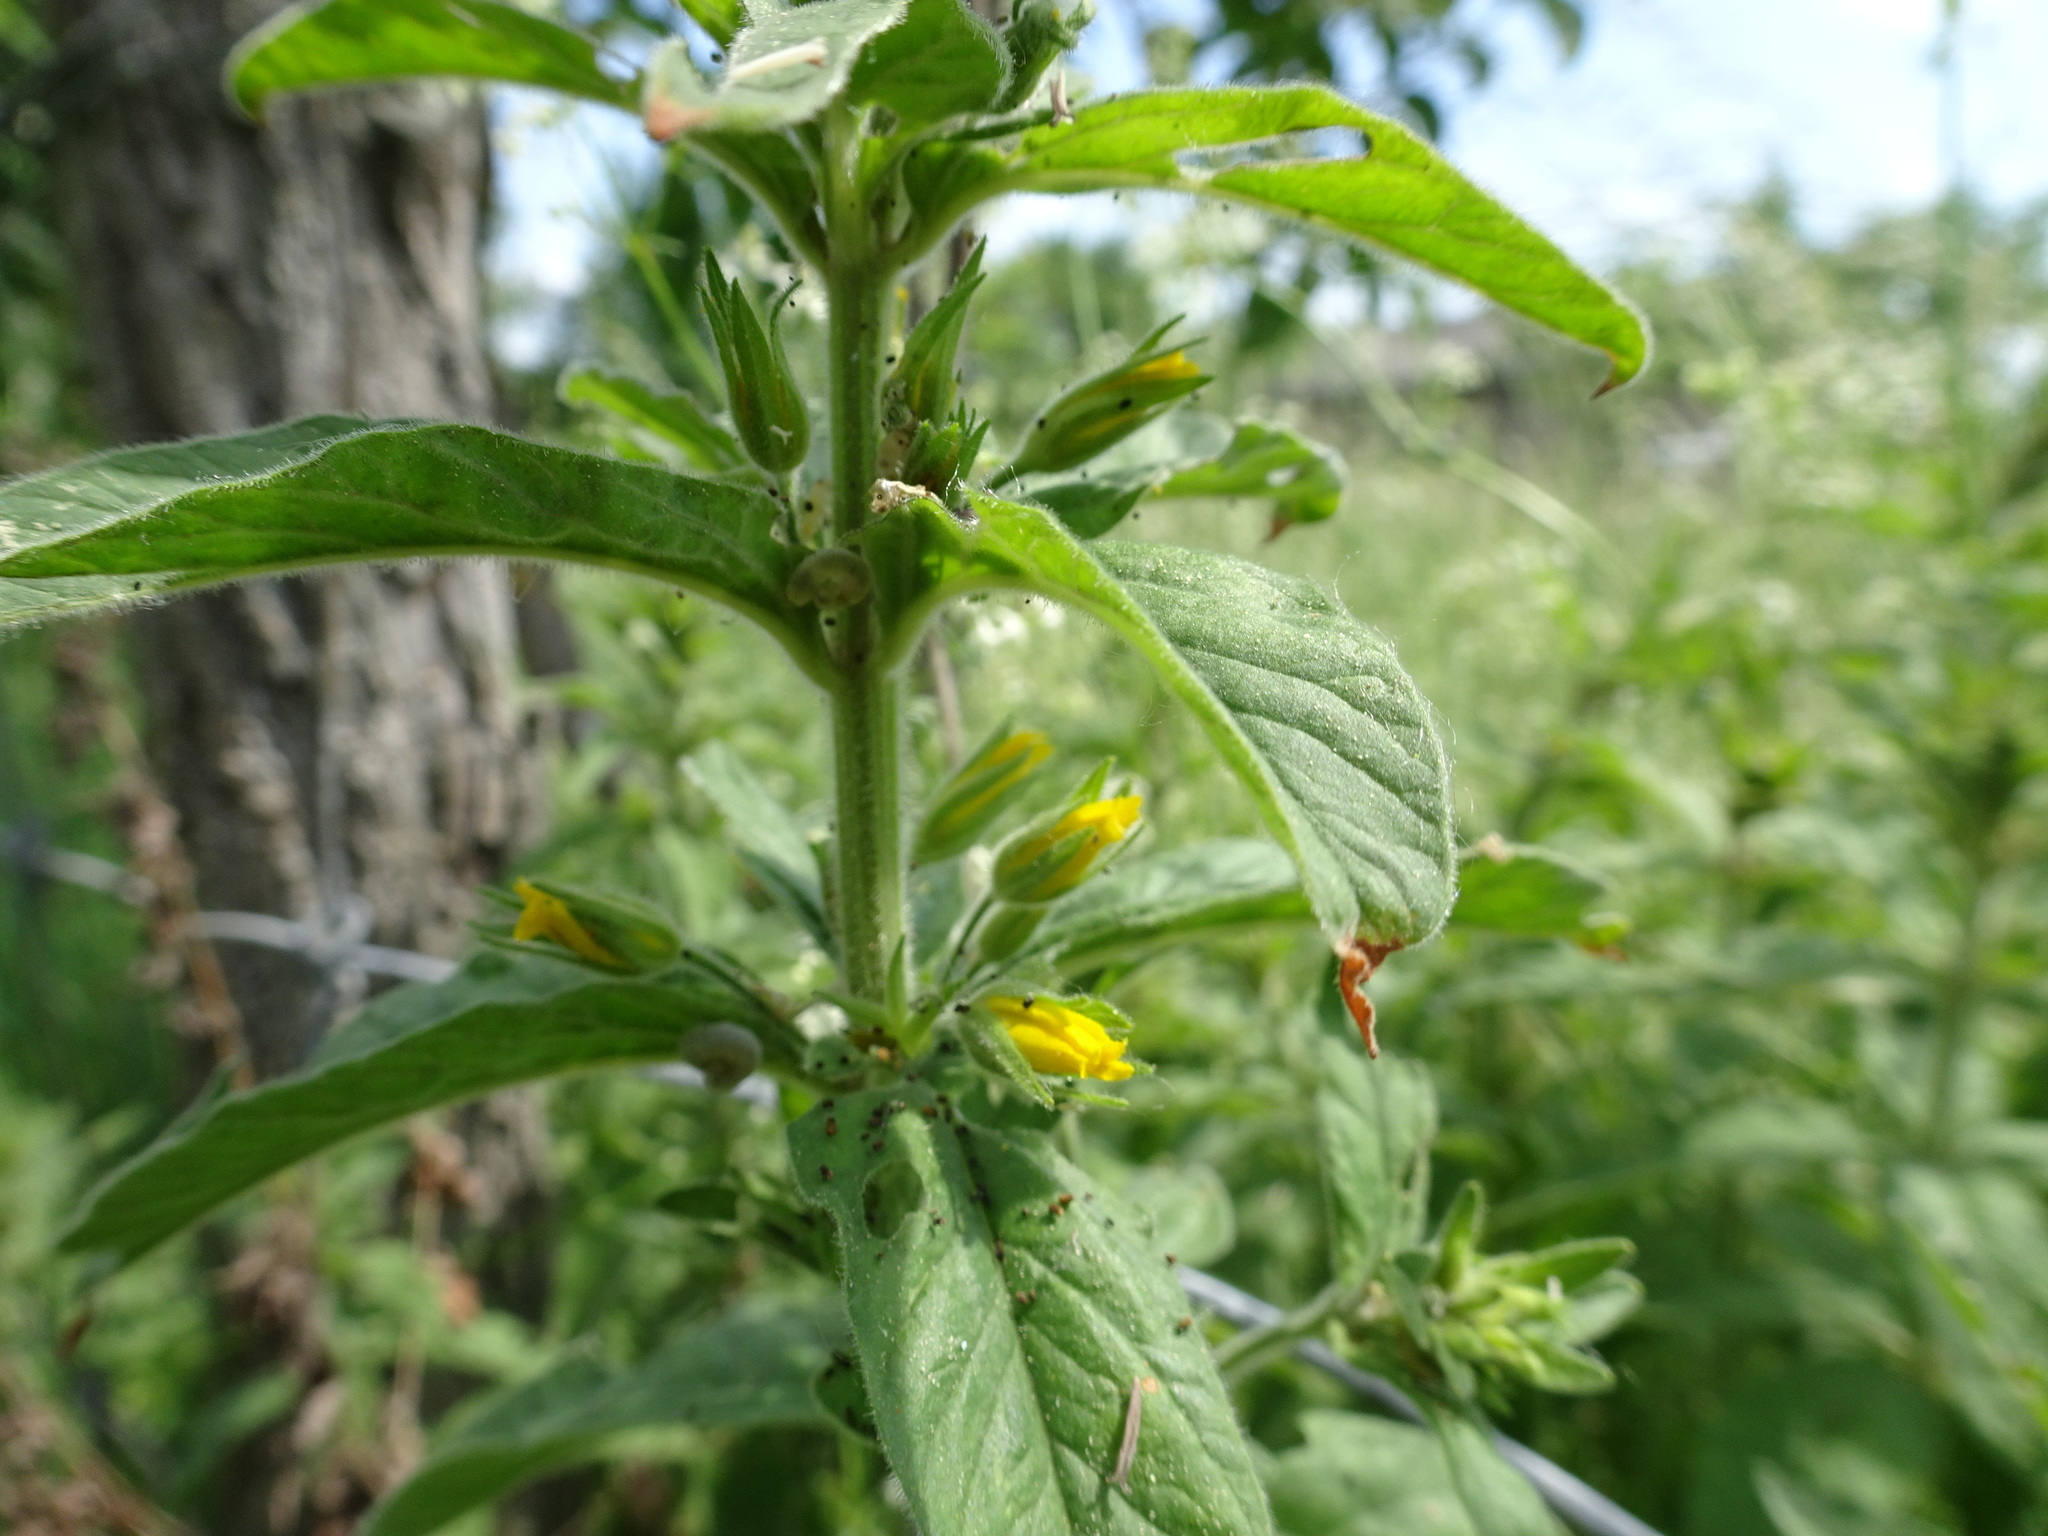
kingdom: Plantae
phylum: Tracheophyta
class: Magnoliopsida
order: Ericales
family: Primulaceae
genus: Lysimachia
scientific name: Lysimachia punctata
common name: Dotted loosestrife
